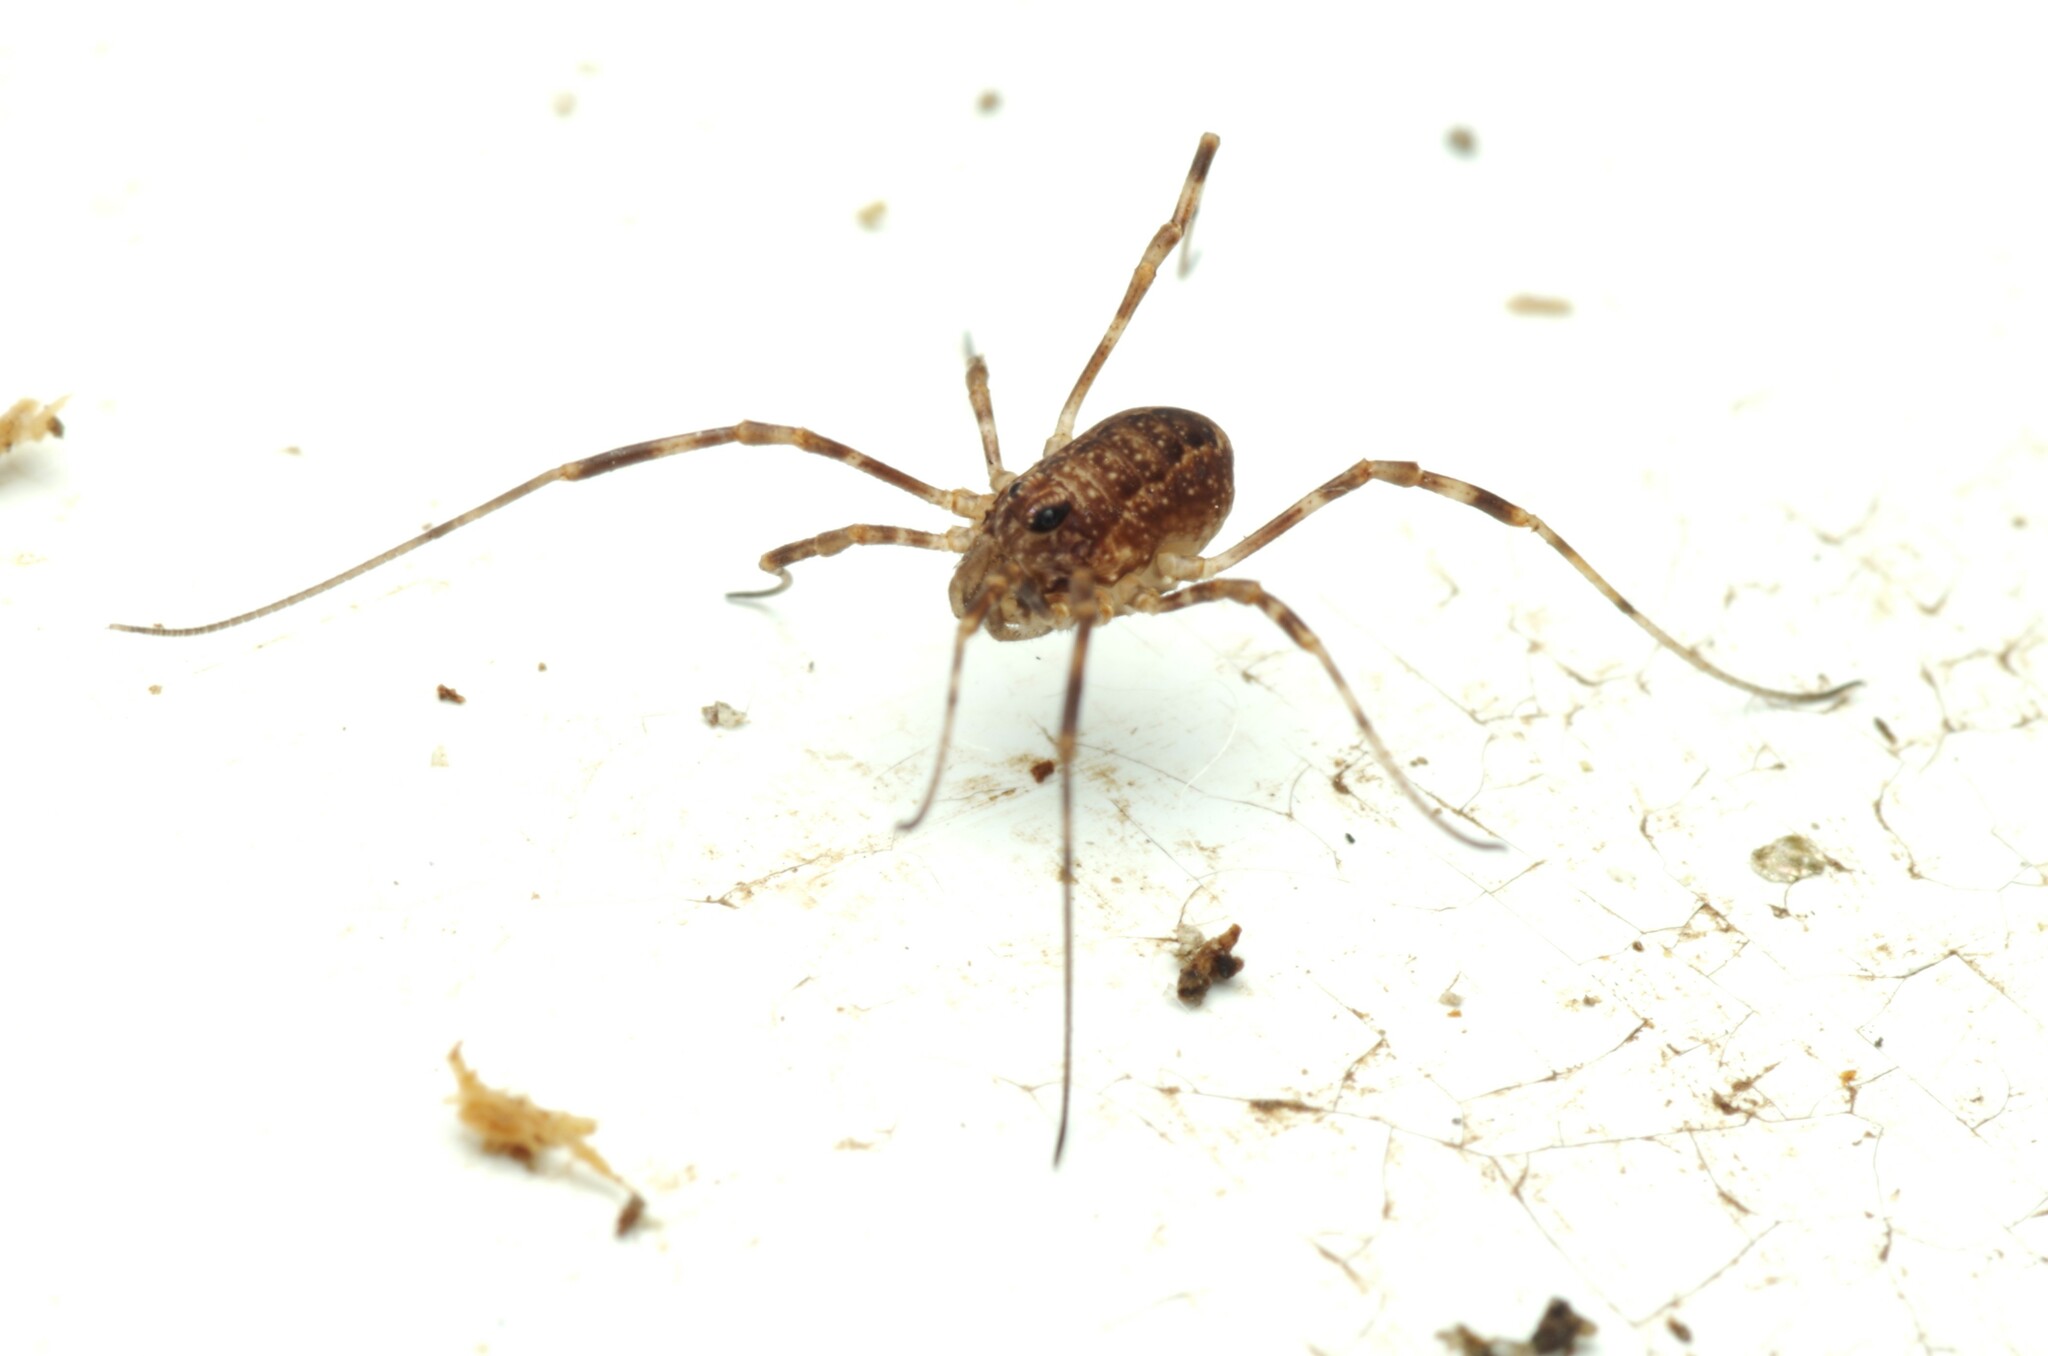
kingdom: Animalia
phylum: Arthropoda
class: Arachnida
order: Opiliones
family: Phalangiidae
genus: Rilaena
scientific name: Rilaena triangularis
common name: Spring harvestman
